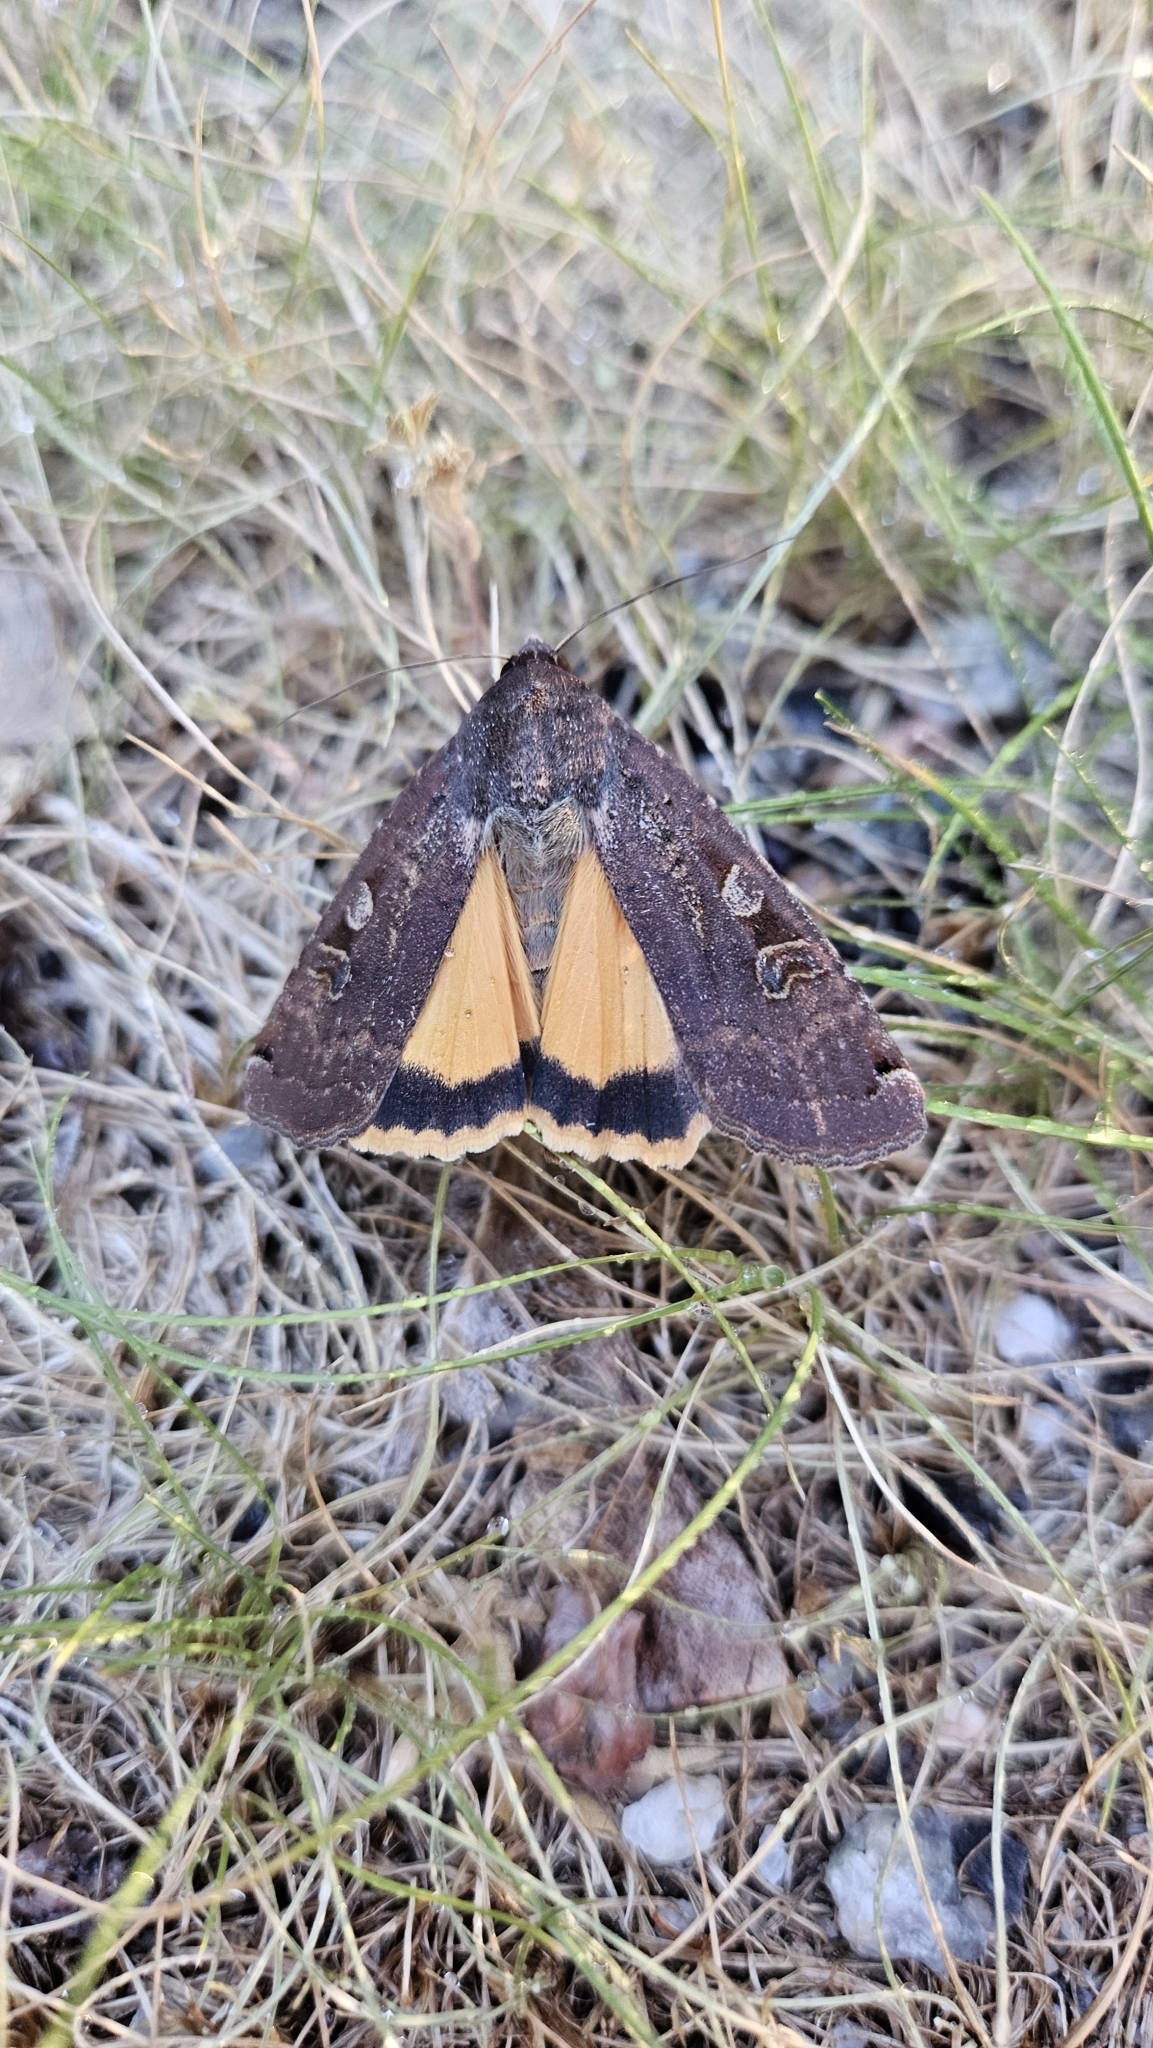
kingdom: Animalia
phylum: Arthropoda
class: Insecta
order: Lepidoptera
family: Noctuidae
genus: Noctua
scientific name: Noctua pronuba
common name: Large yellow underwing
